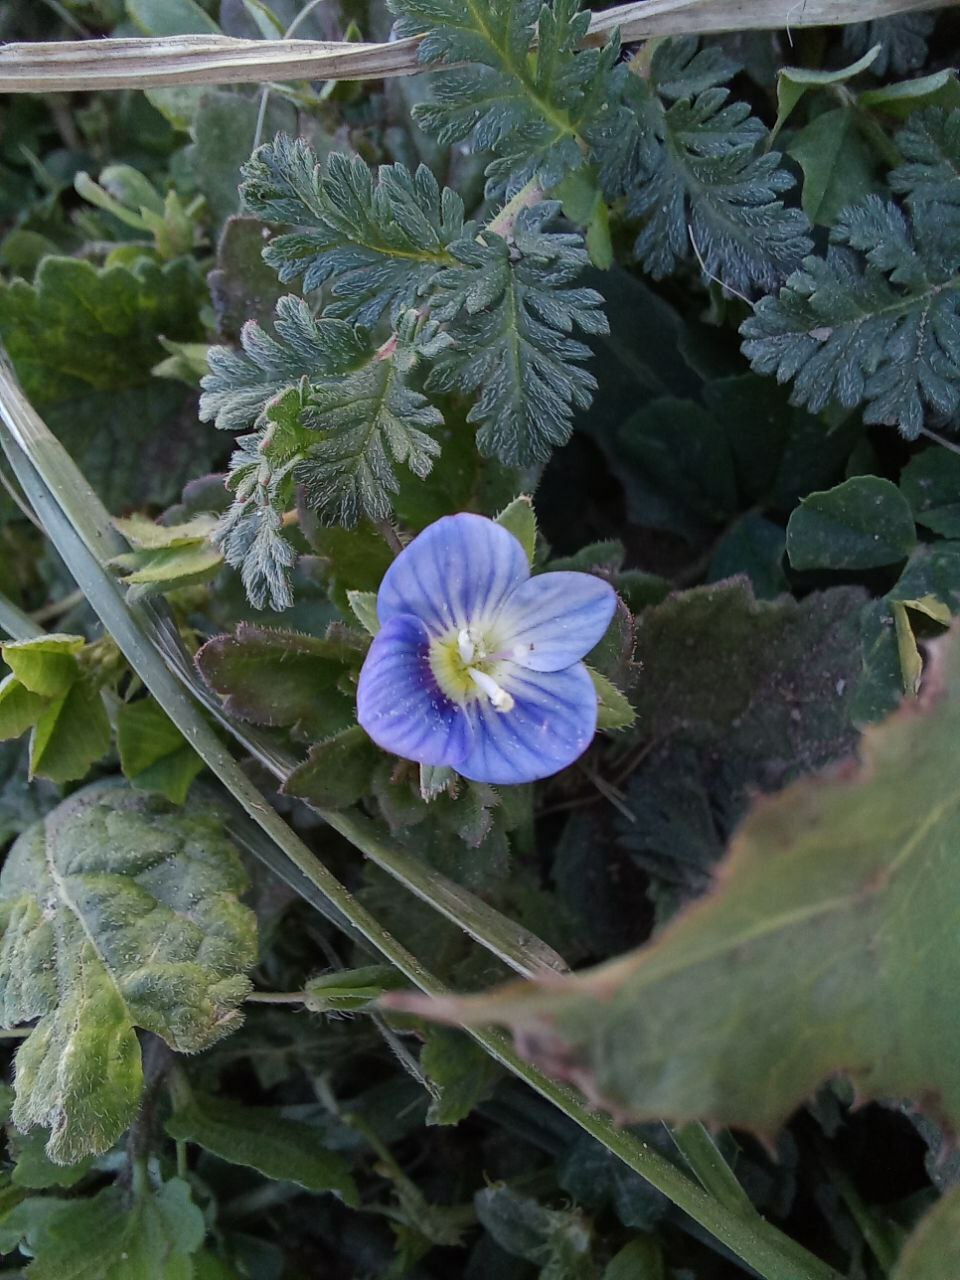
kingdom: Plantae
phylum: Tracheophyta
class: Magnoliopsida
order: Lamiales
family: Plantaginaceae
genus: Veronica
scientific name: Veronica persica
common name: Common field-speedwell
